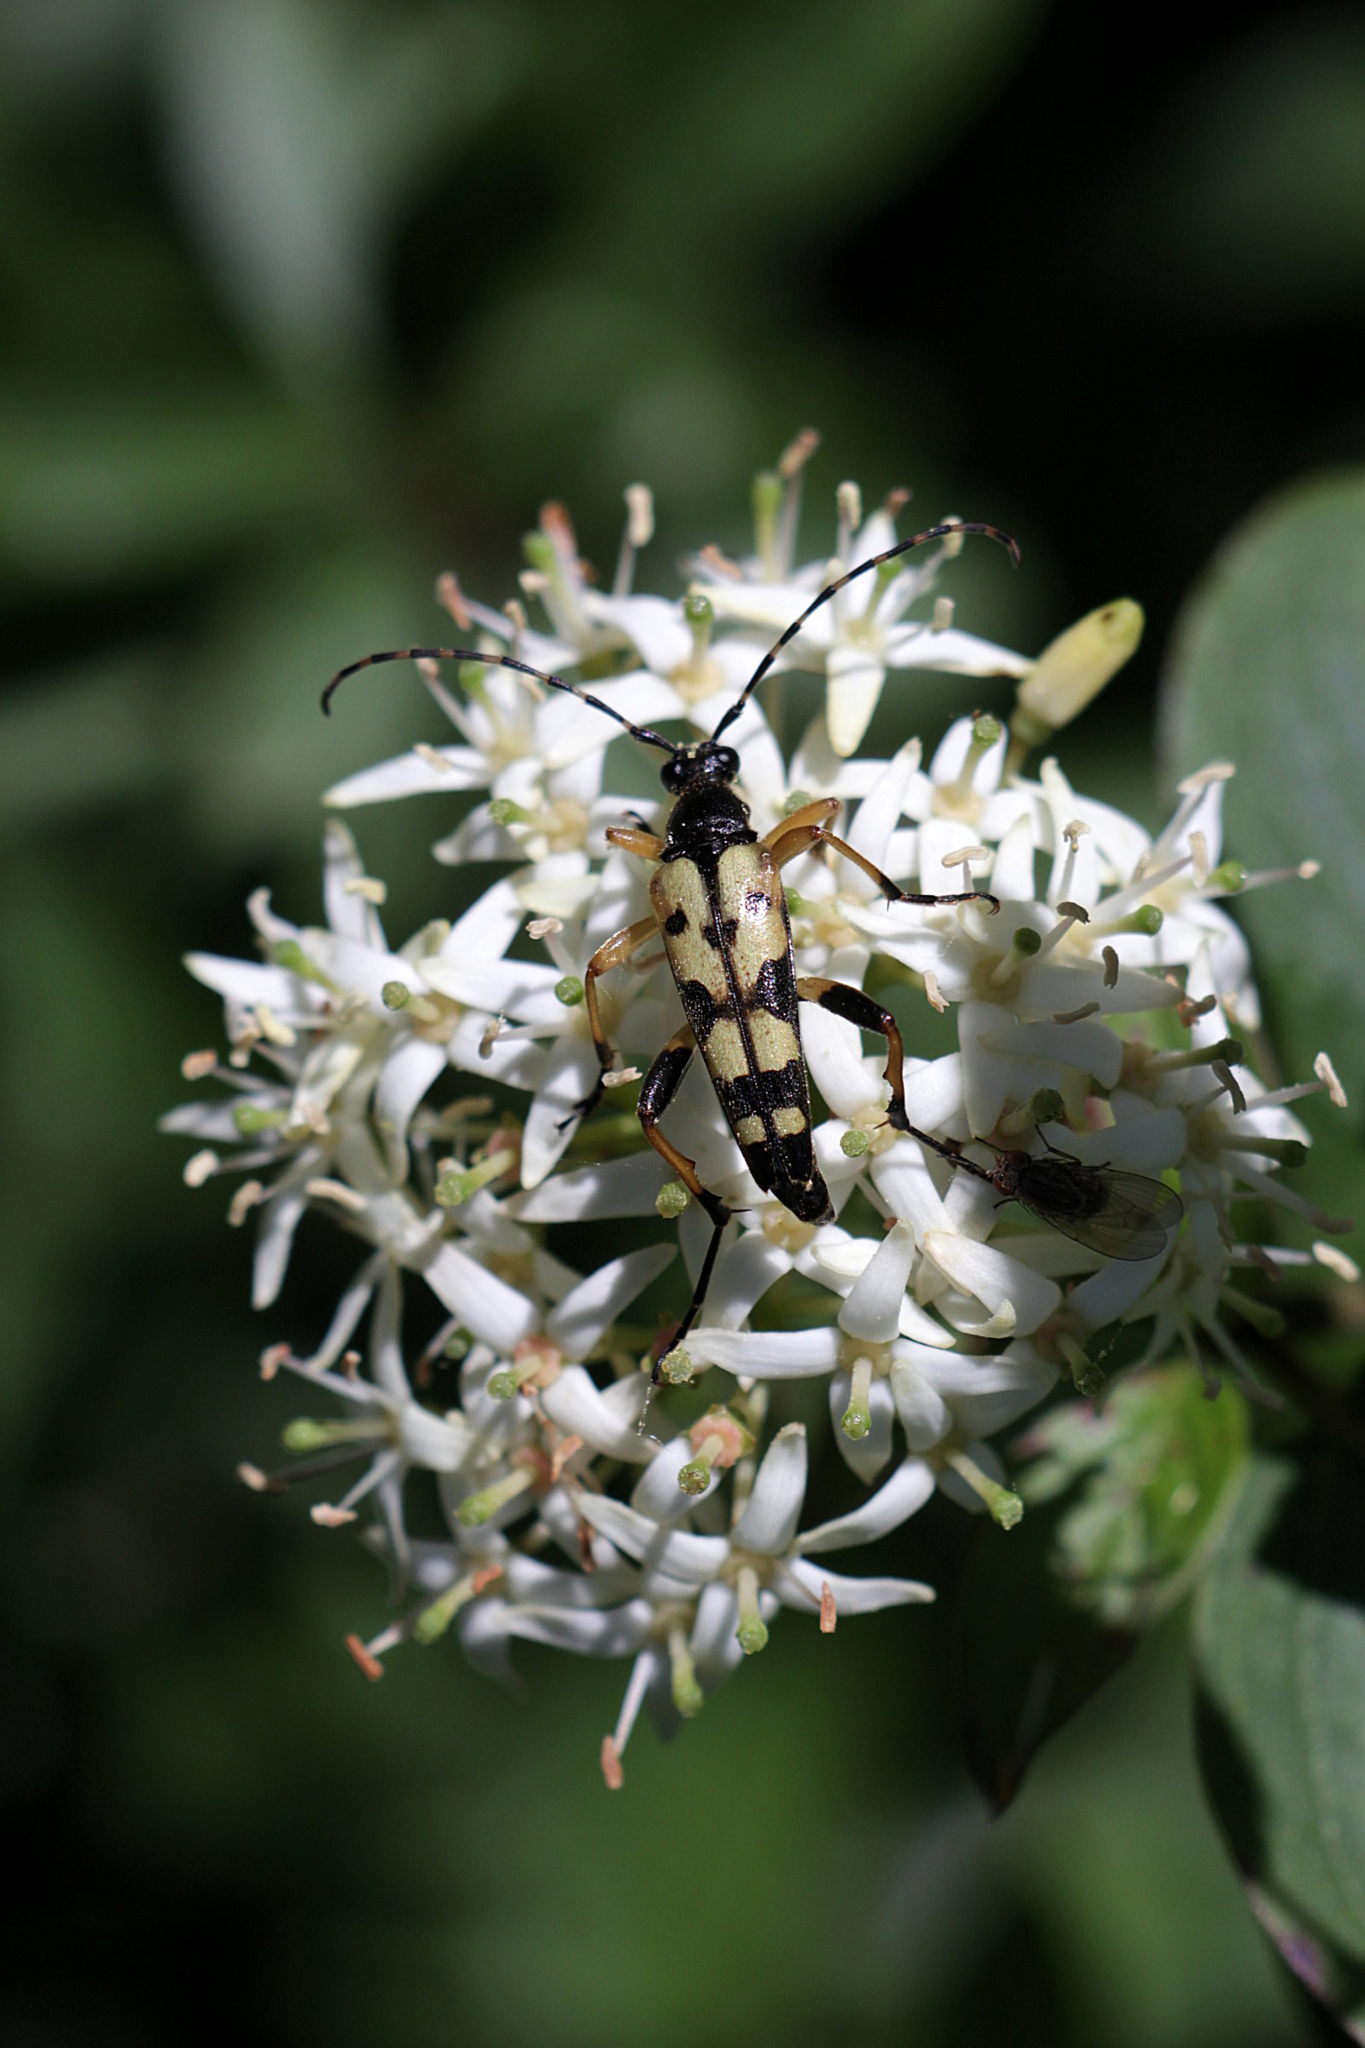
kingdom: Animalia
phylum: Arthropoda
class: Insecta
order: Coleoptera
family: Cerambycidae
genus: Rutpela
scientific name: Rutpela maculata
